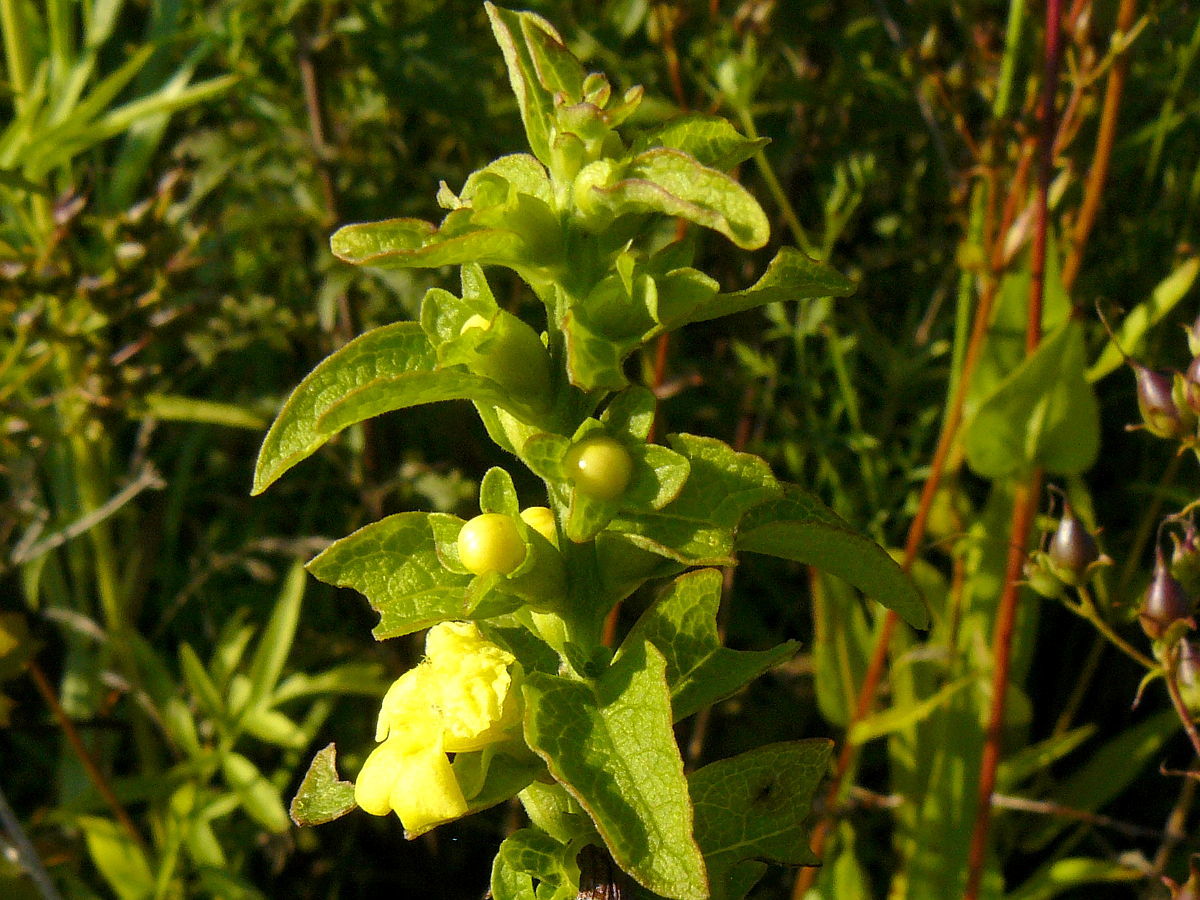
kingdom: Plantae
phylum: Tracheophyta
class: Magnoliopsida
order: Lamiales
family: Orobanchaceae
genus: Dasistoma
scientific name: Dasistoma macrophyllum
